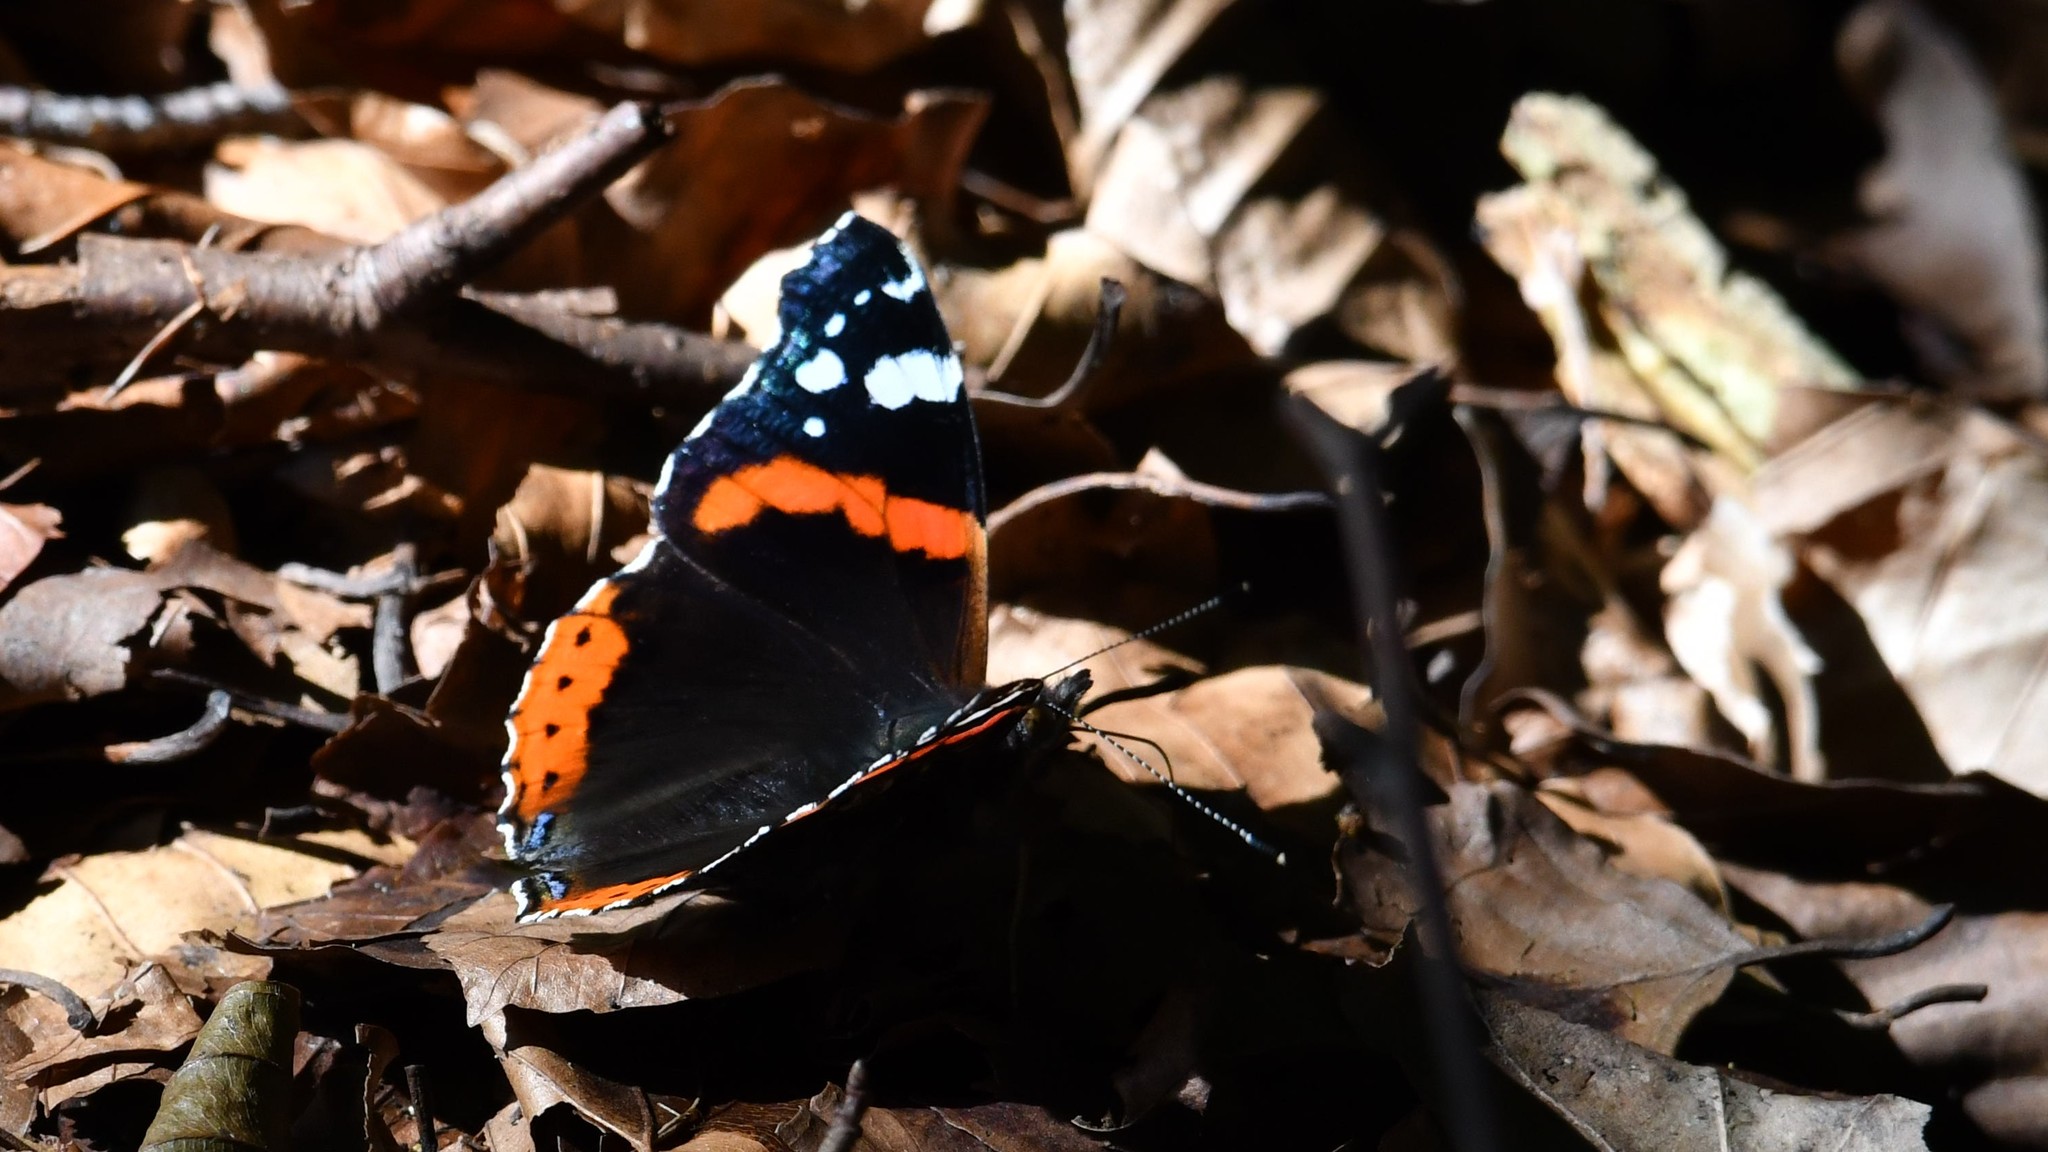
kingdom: Animalia
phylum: Arthropoda
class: Insecta
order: Lepidoptera
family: Nymphalidae
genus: Vanessa
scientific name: Vanessa atalanta
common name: Red admiral
